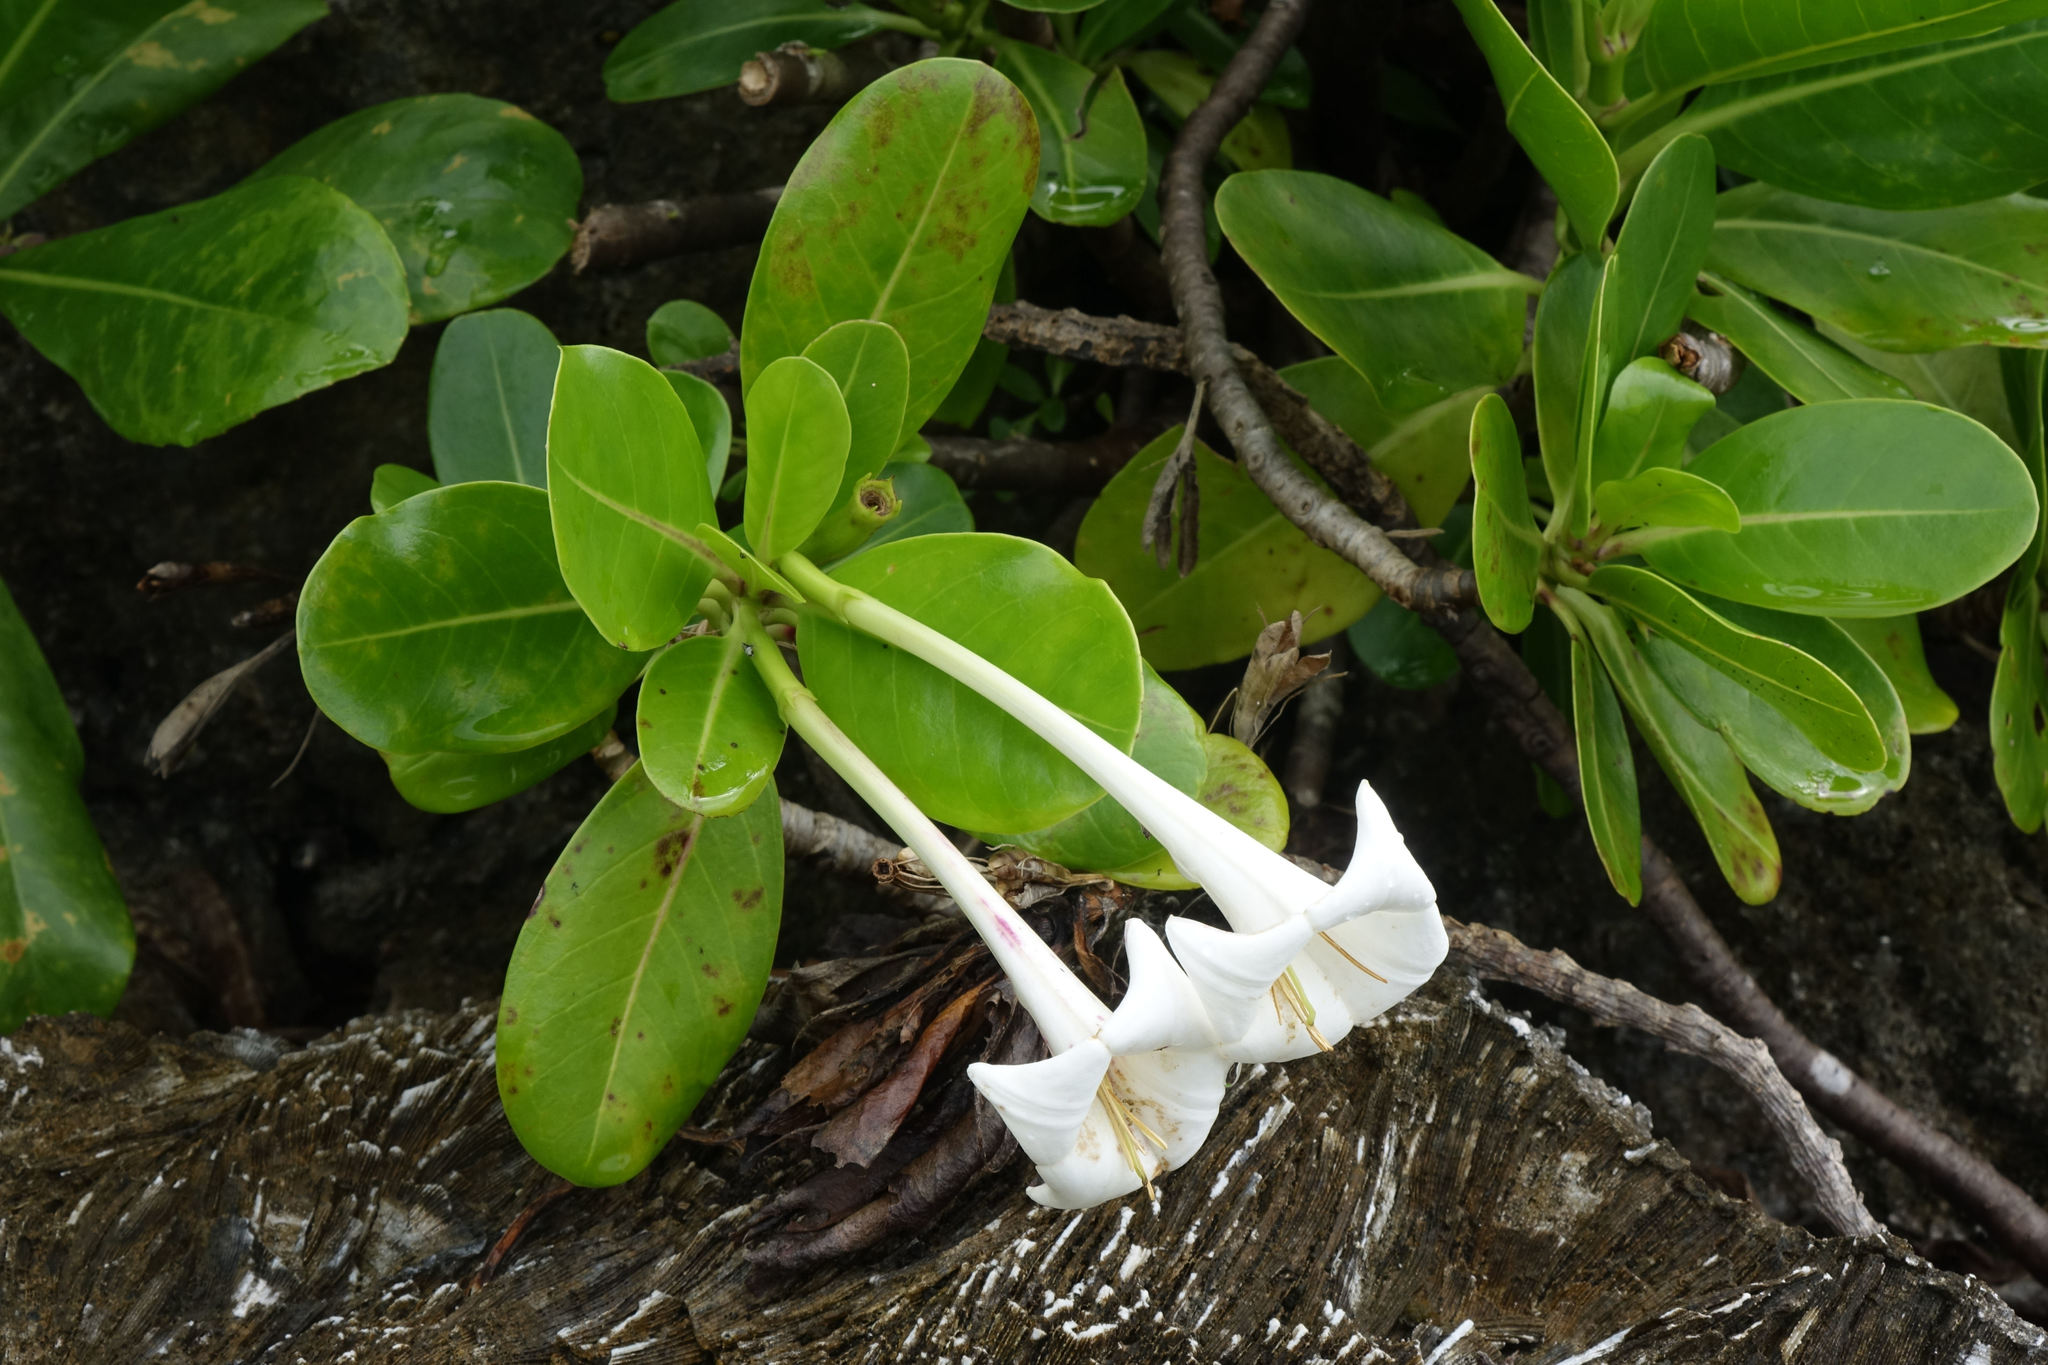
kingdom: Plantae
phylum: Tracheophyta
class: Magnoliopsida
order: Gentianales
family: Rubiaceae
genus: Bikkia
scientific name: Bikkia tetrandra
